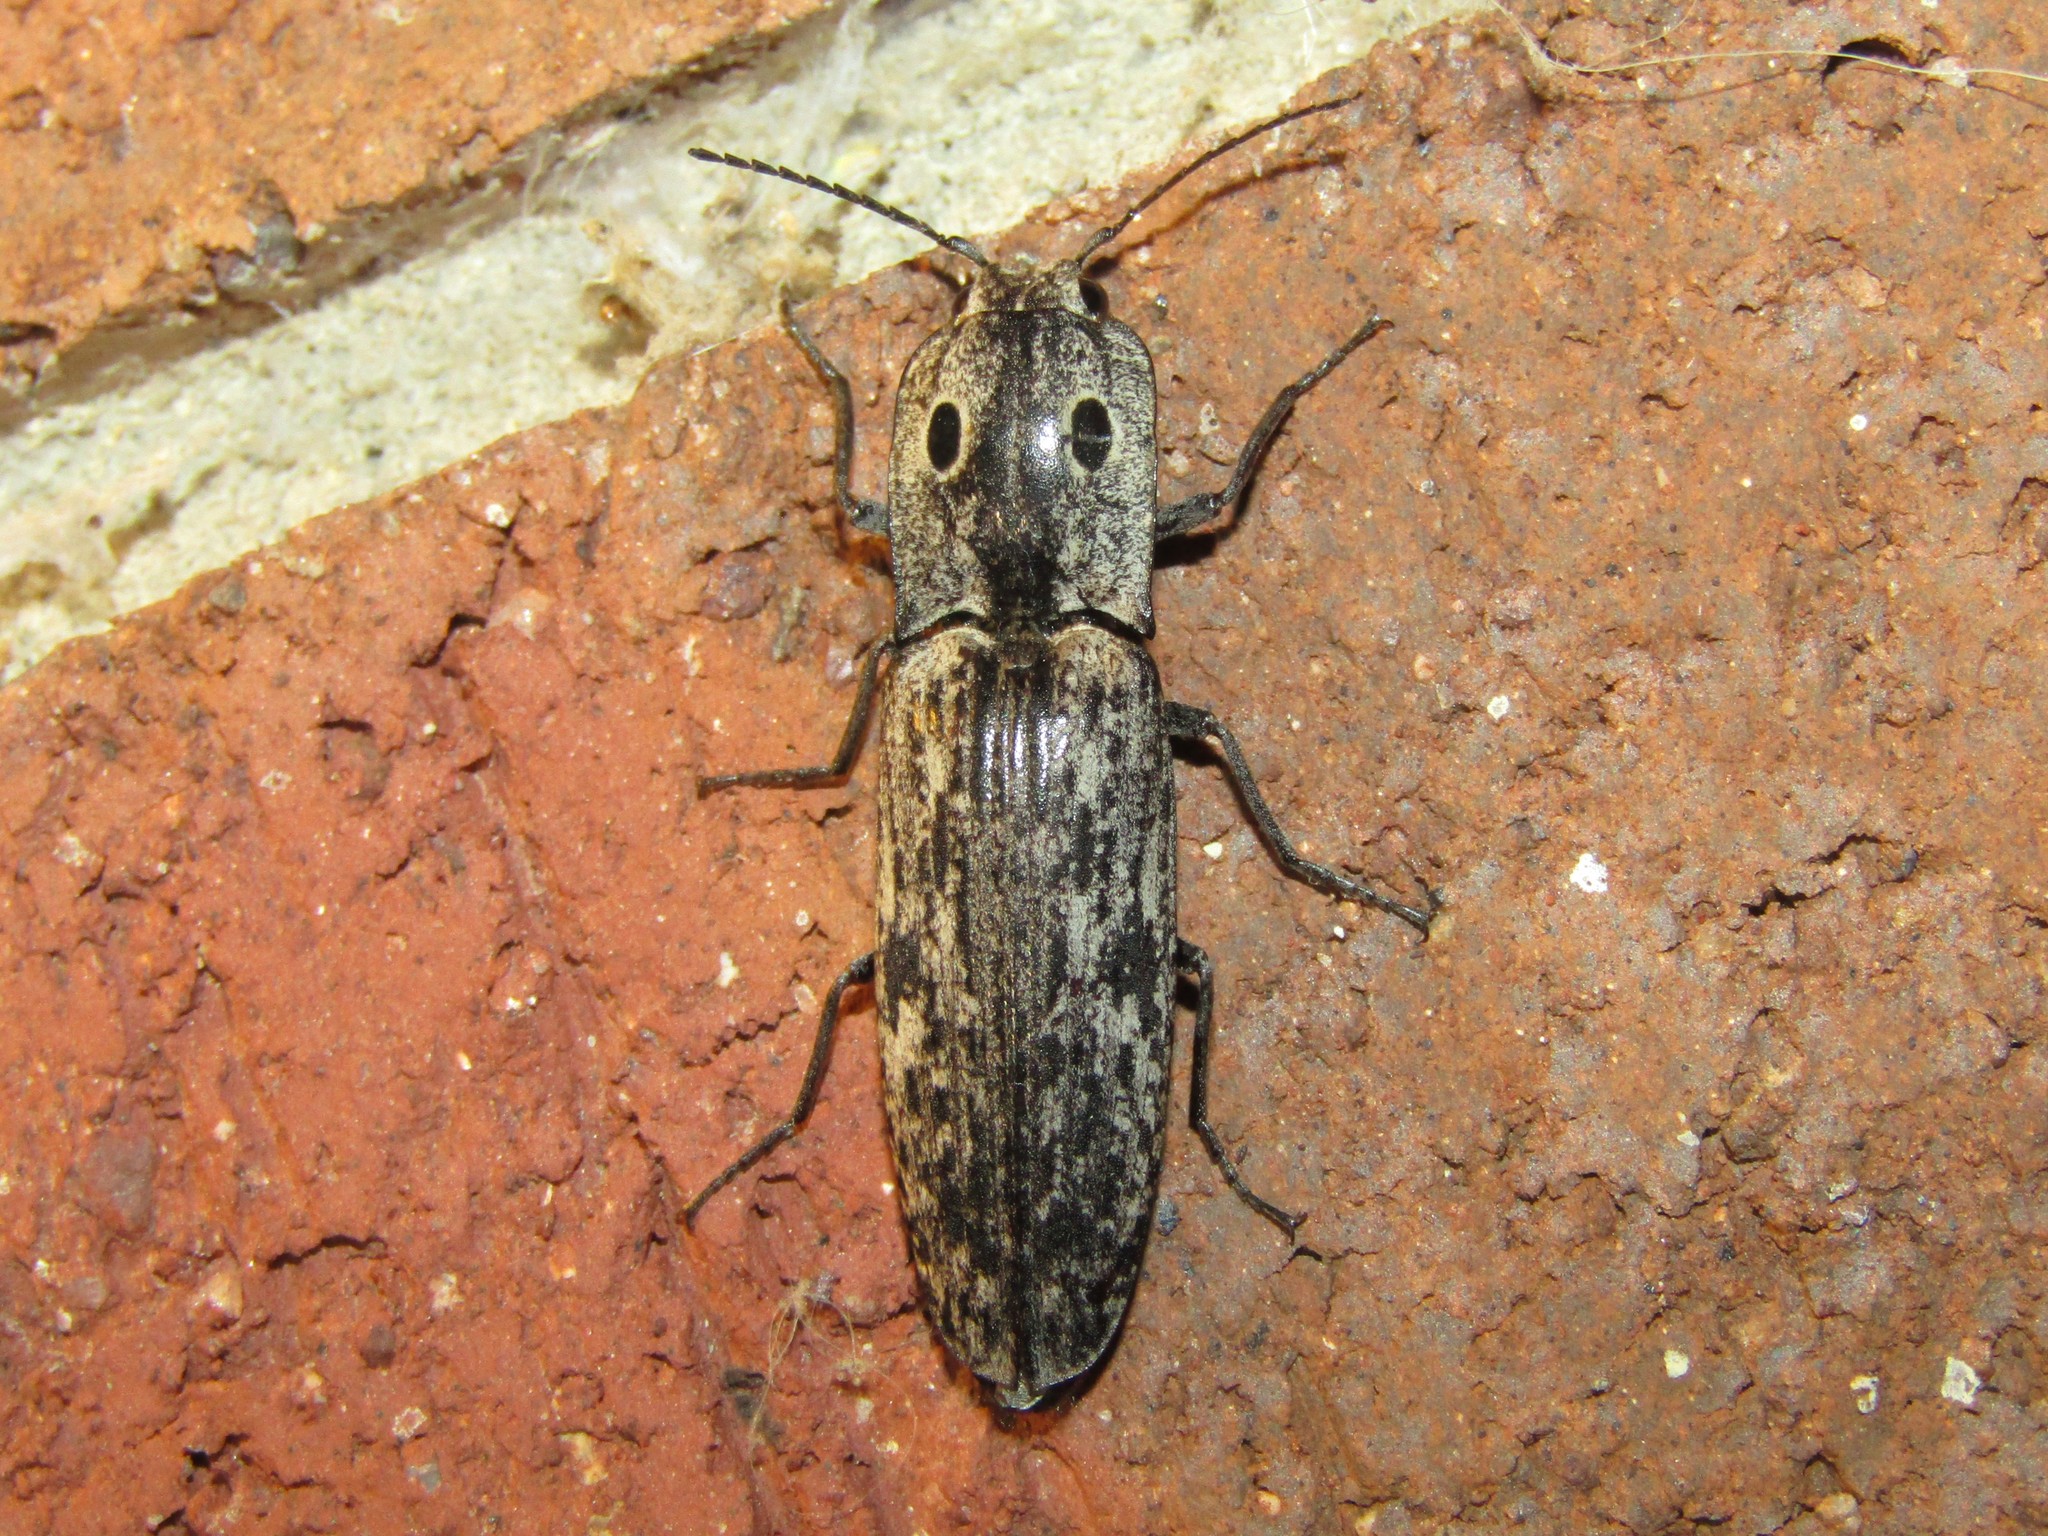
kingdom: Animalia
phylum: Arthropoda
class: Insecta
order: Coleoptera
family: Elateridae
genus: Alaus
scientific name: Alaus myops
